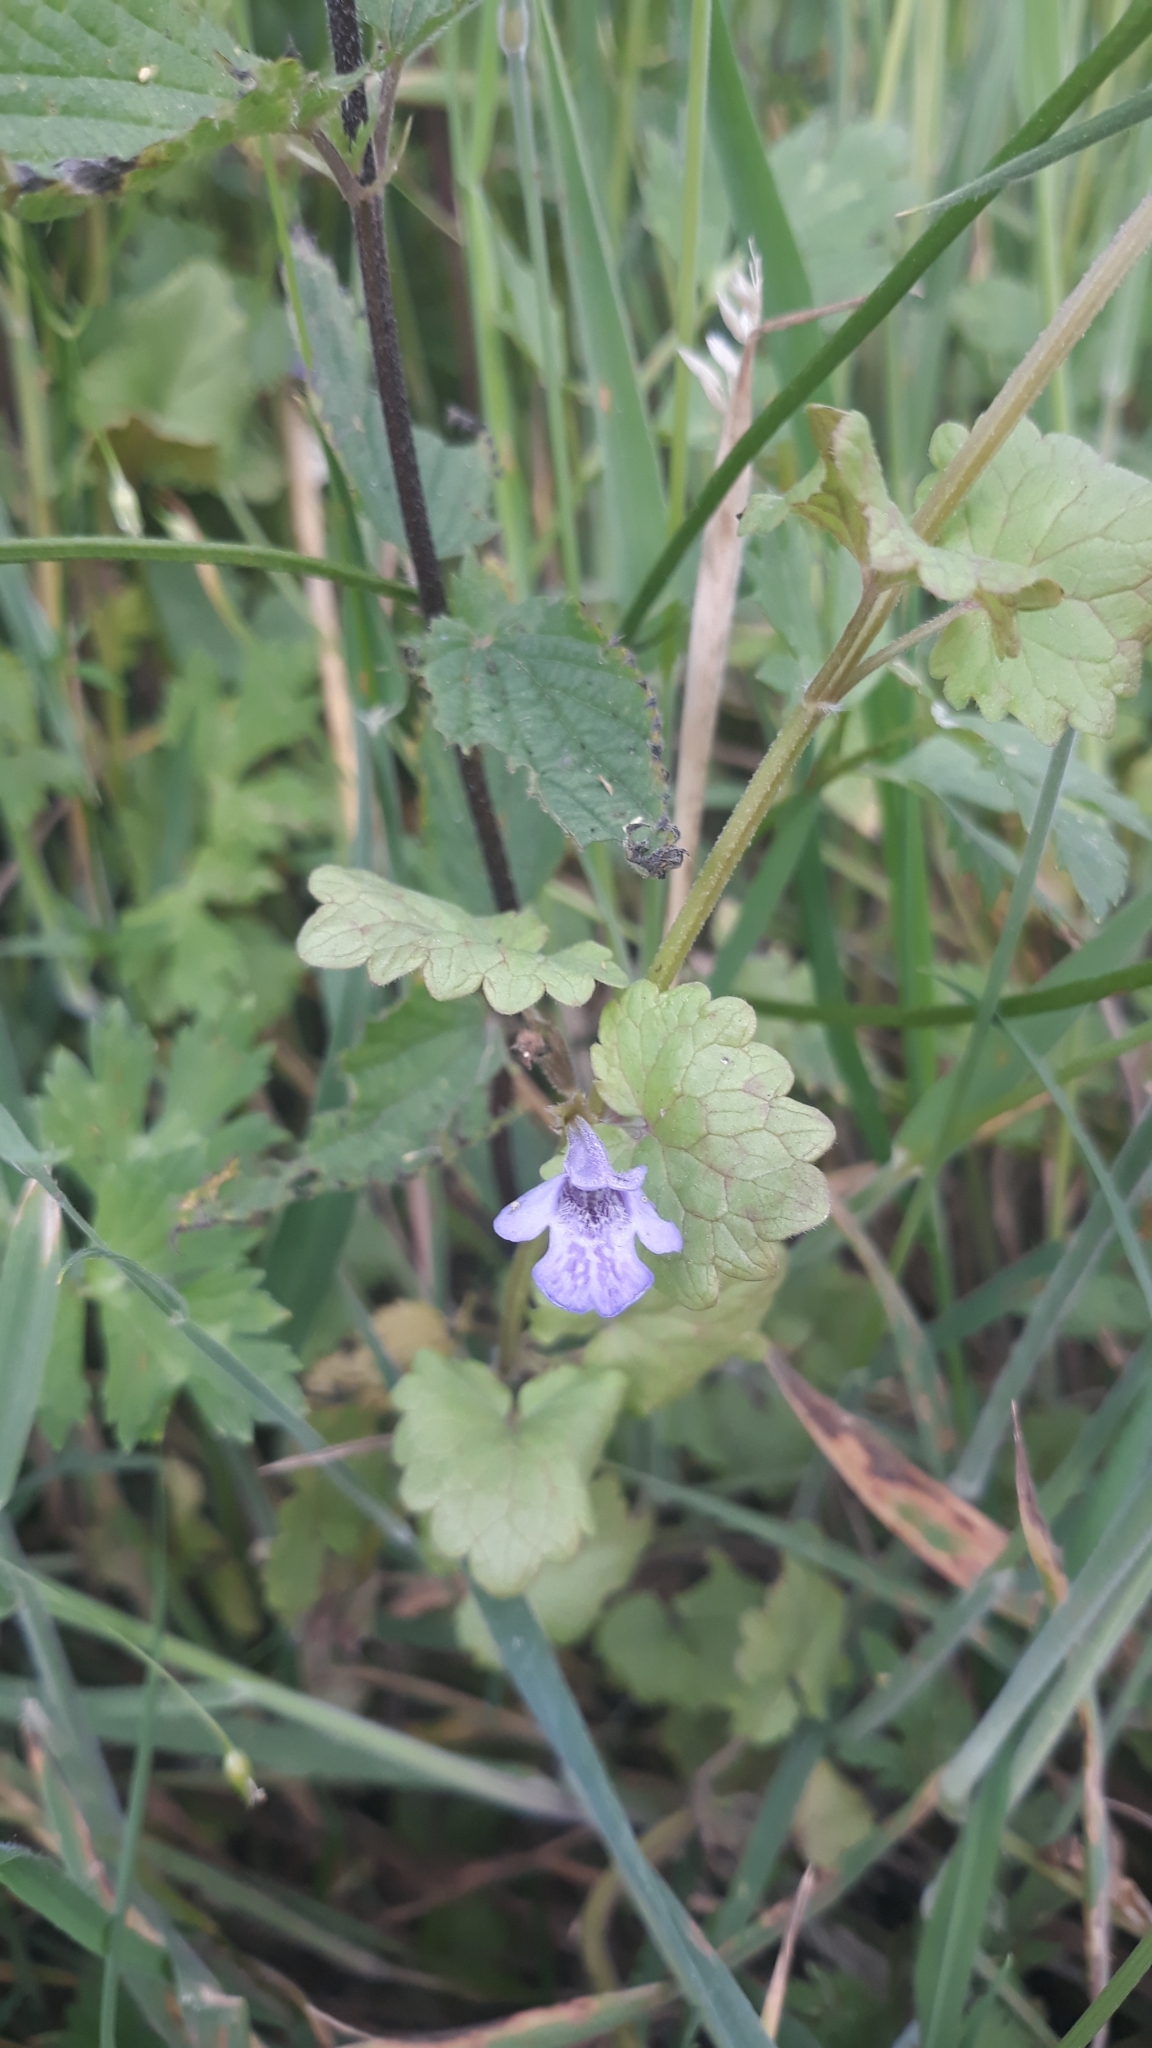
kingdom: Plantae
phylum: Tracheophyta
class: Magnoliopsida
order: Lamiales
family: Lamiaceae
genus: Glechoma
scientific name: Glechoma hederacea
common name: Ground ivy
